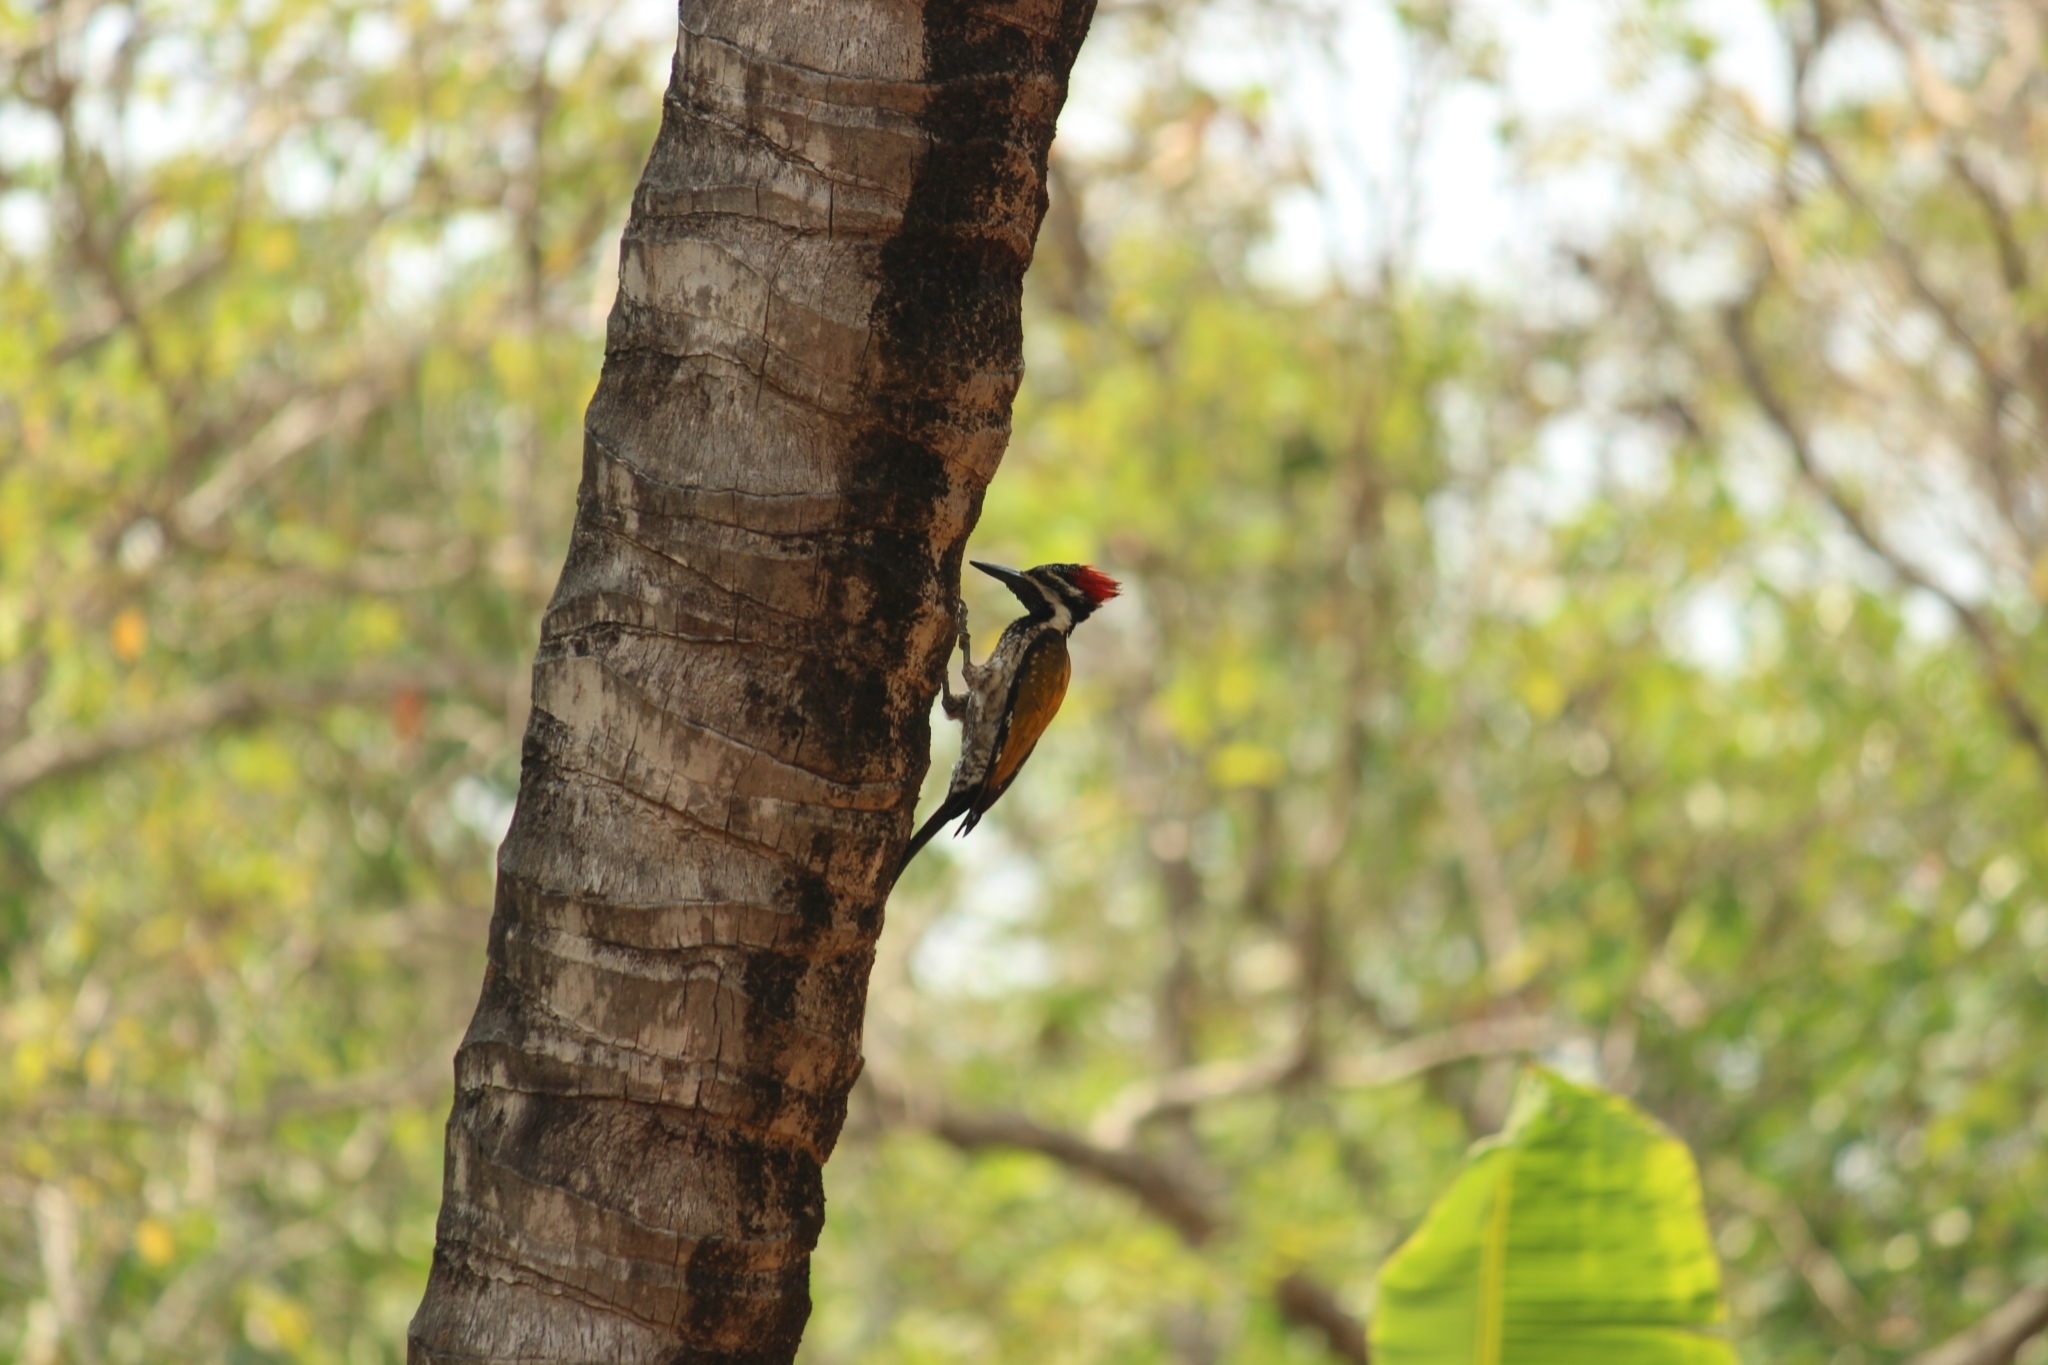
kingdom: Animalia
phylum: Chordata
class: Aves
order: Piciformes
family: Picidae
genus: Dinopium
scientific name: Dinopium benghalense
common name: Black-rumped flameback
